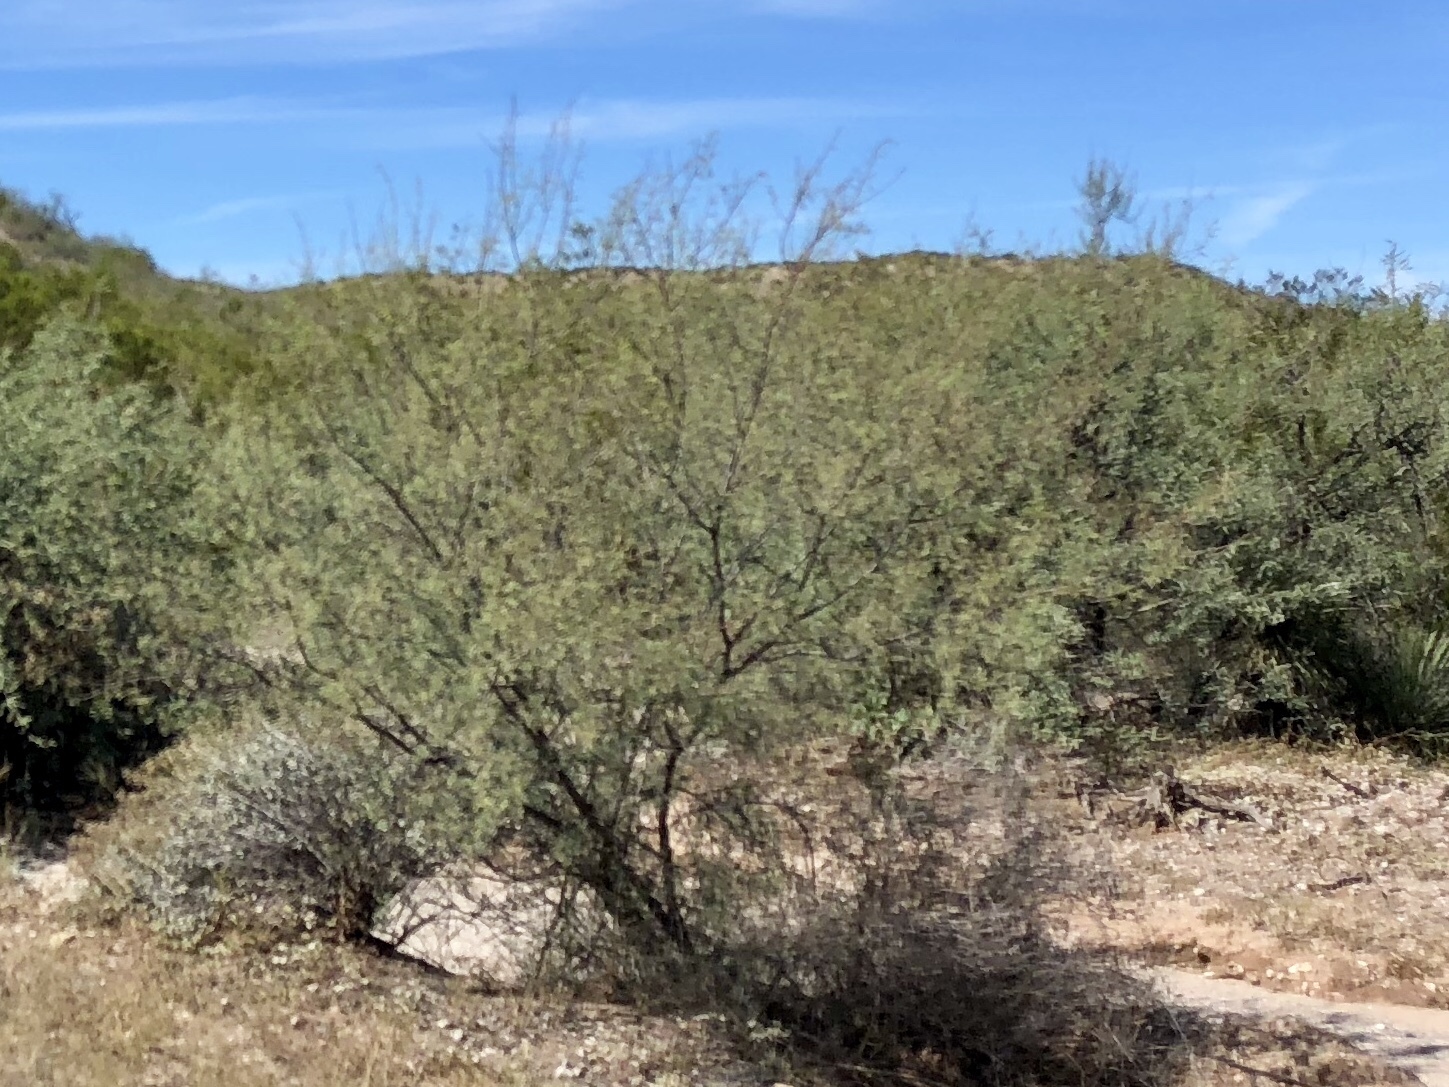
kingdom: Plantae
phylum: Tracheophyta
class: Magnoliopsida
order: Fabales
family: Fabaceae
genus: Vachellia
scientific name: Vachellia constricta
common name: Mescat acacia
